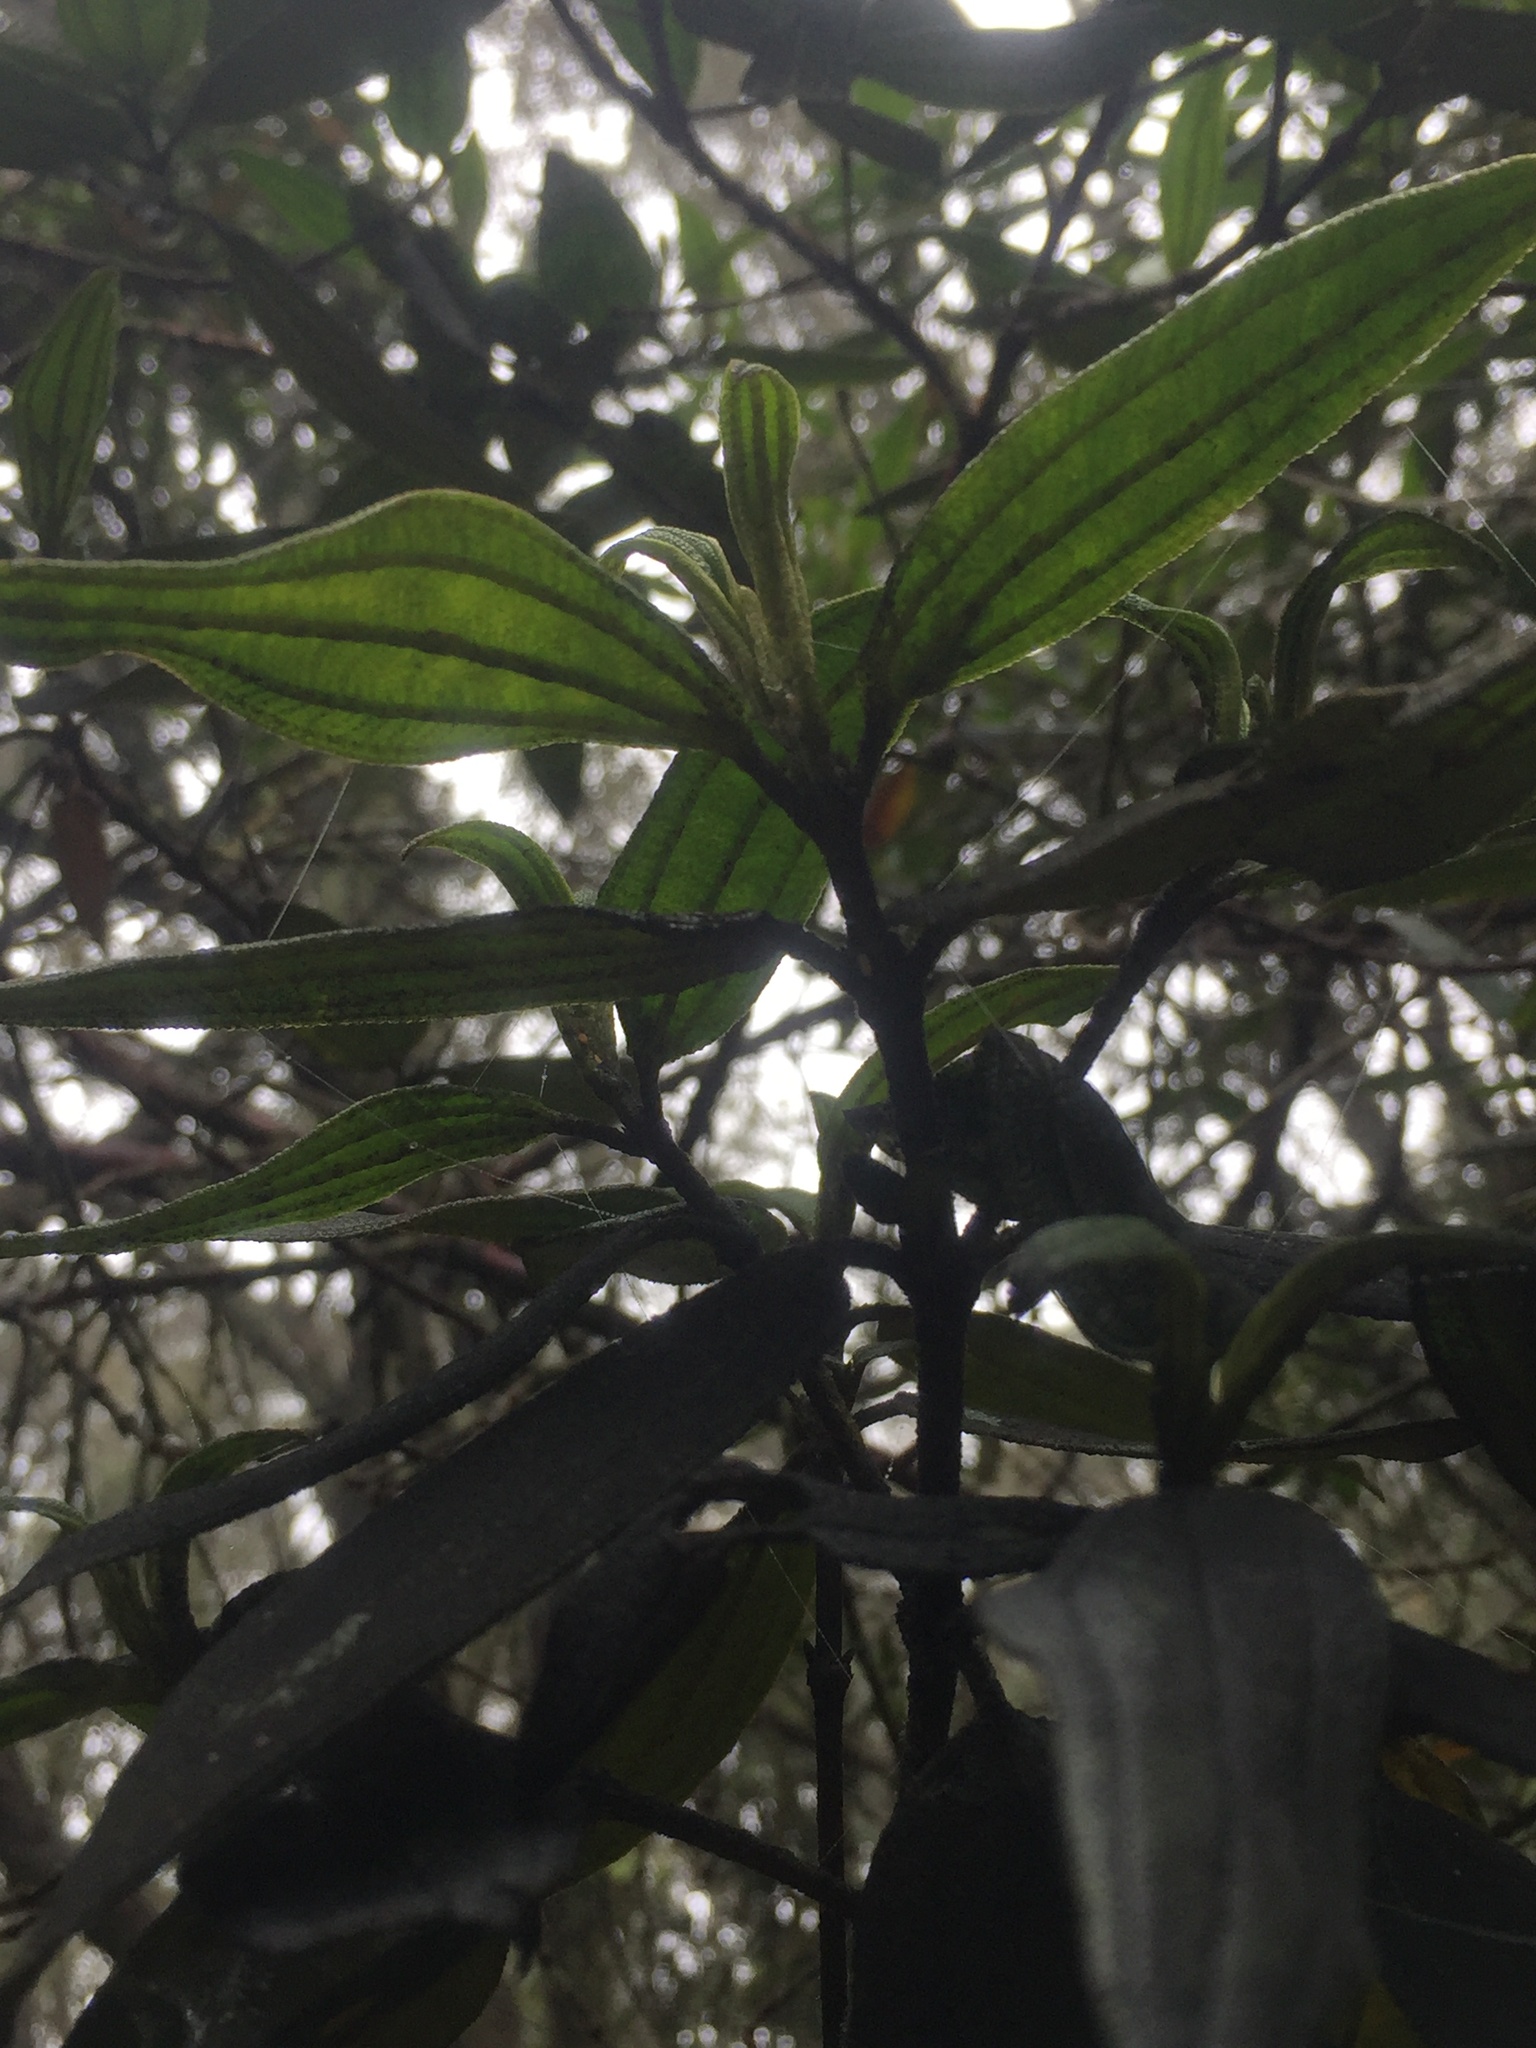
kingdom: Plantae
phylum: Tracheophyta
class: Magnoliopsida
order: Myrtales
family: Melastomataceae
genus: Andesanthus
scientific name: Andesanthus lepidotus
